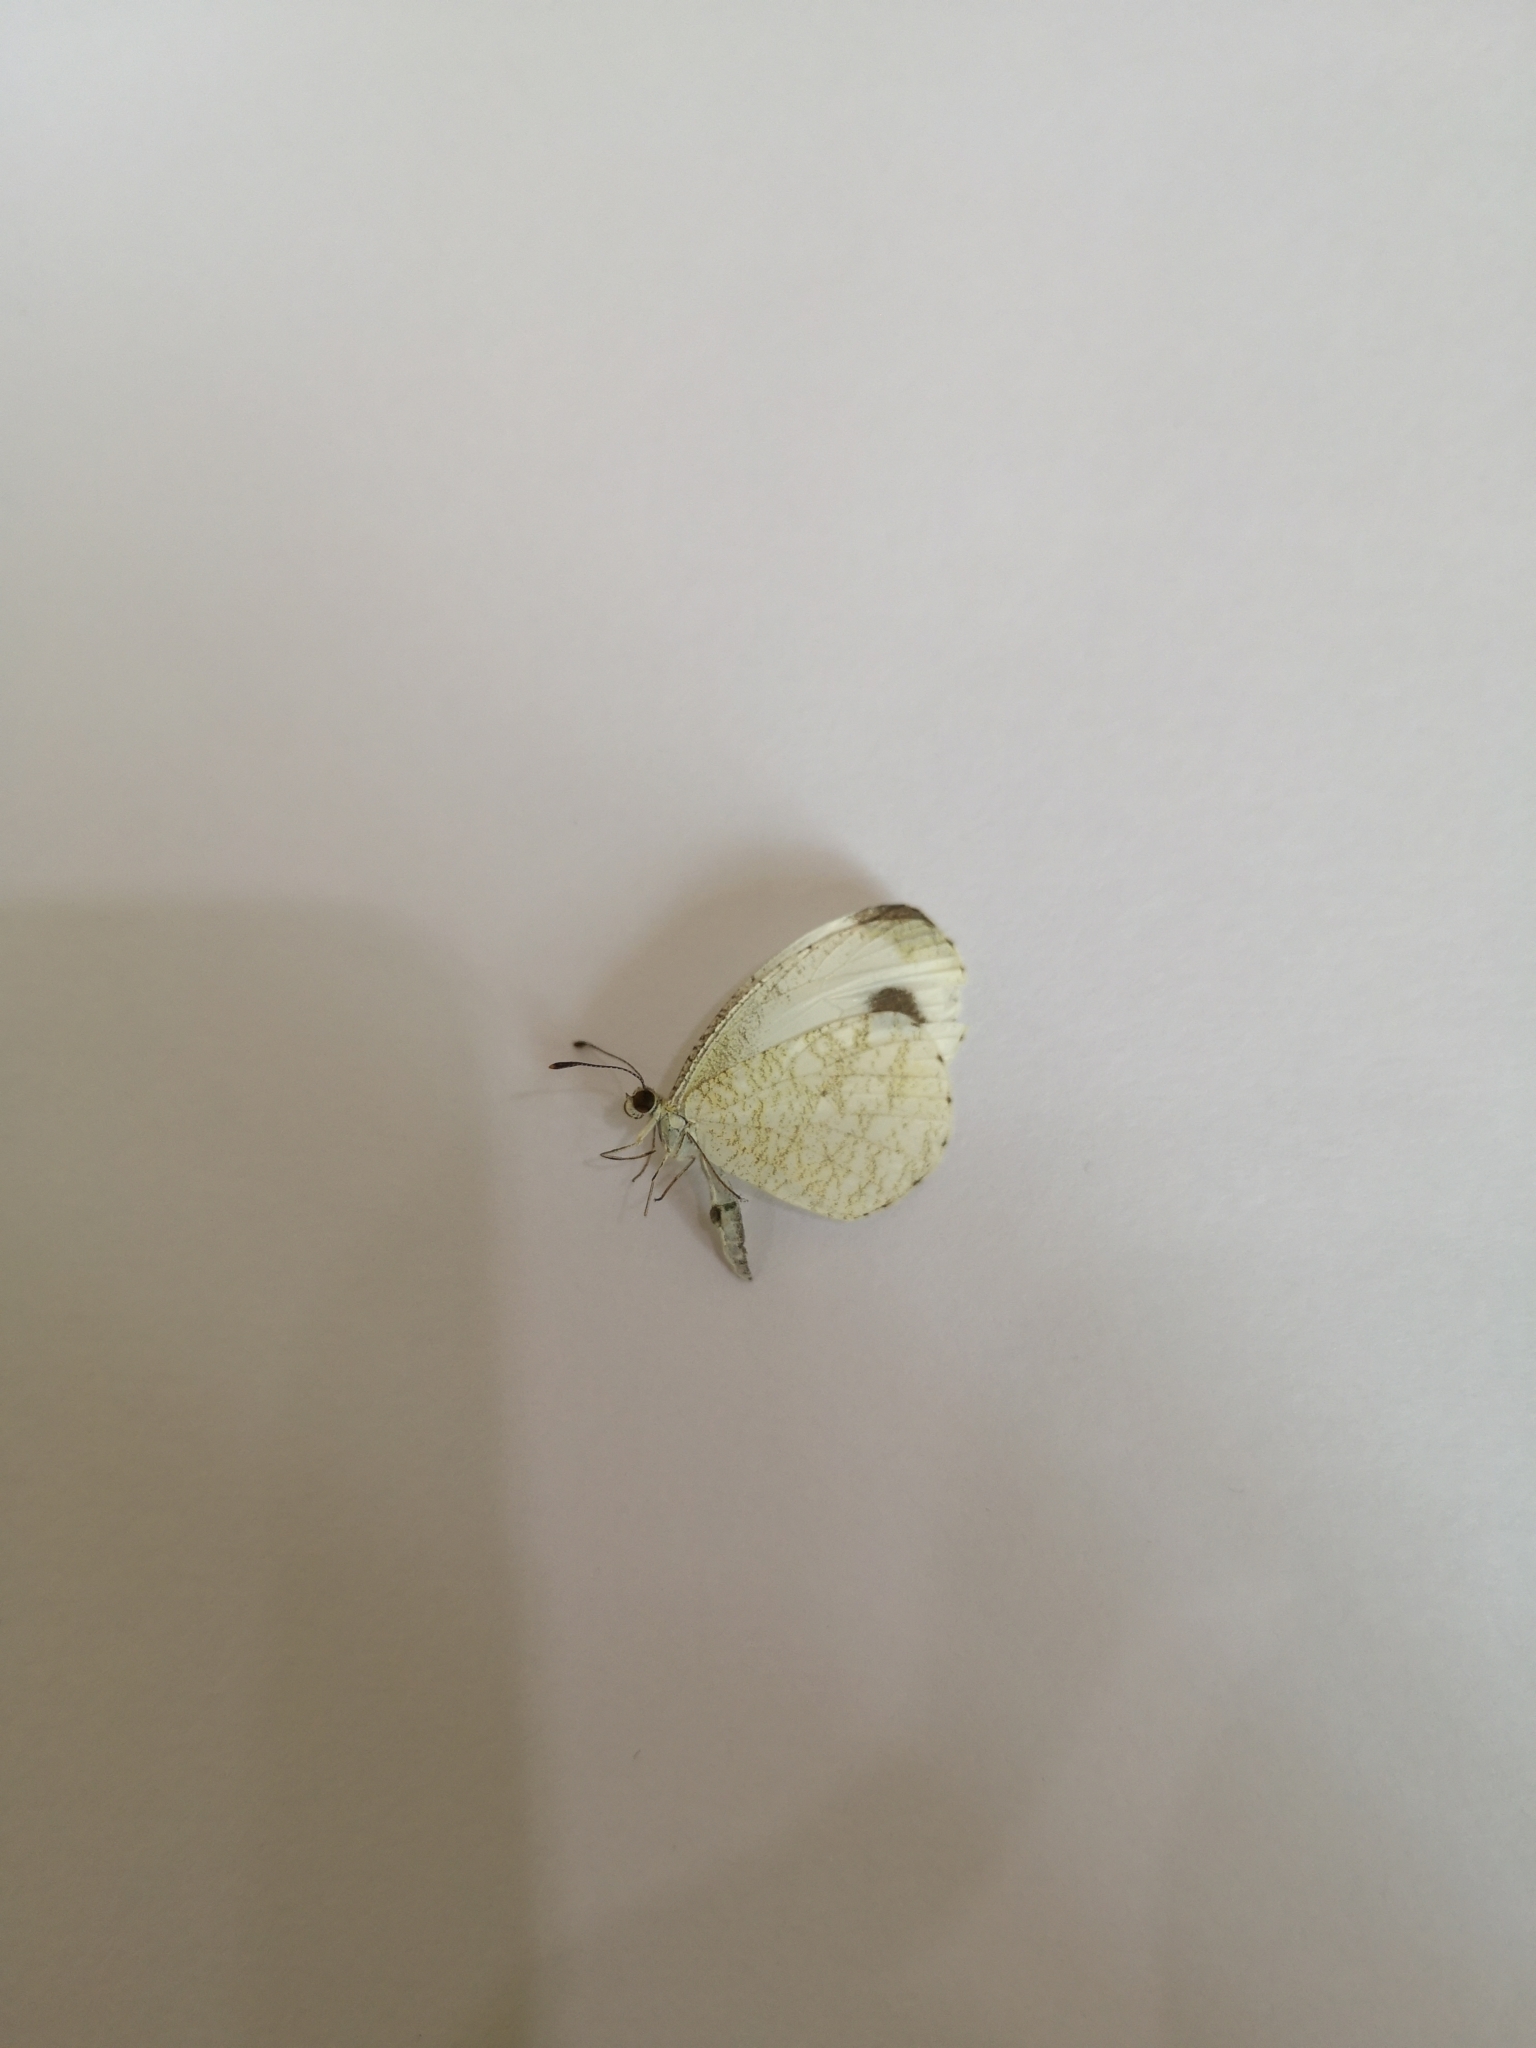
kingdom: Animalia
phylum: Arthropoda
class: Insecta
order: Lepidoptera
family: Pieridae
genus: Leptosia
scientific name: Leptosia nina
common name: Psyche
